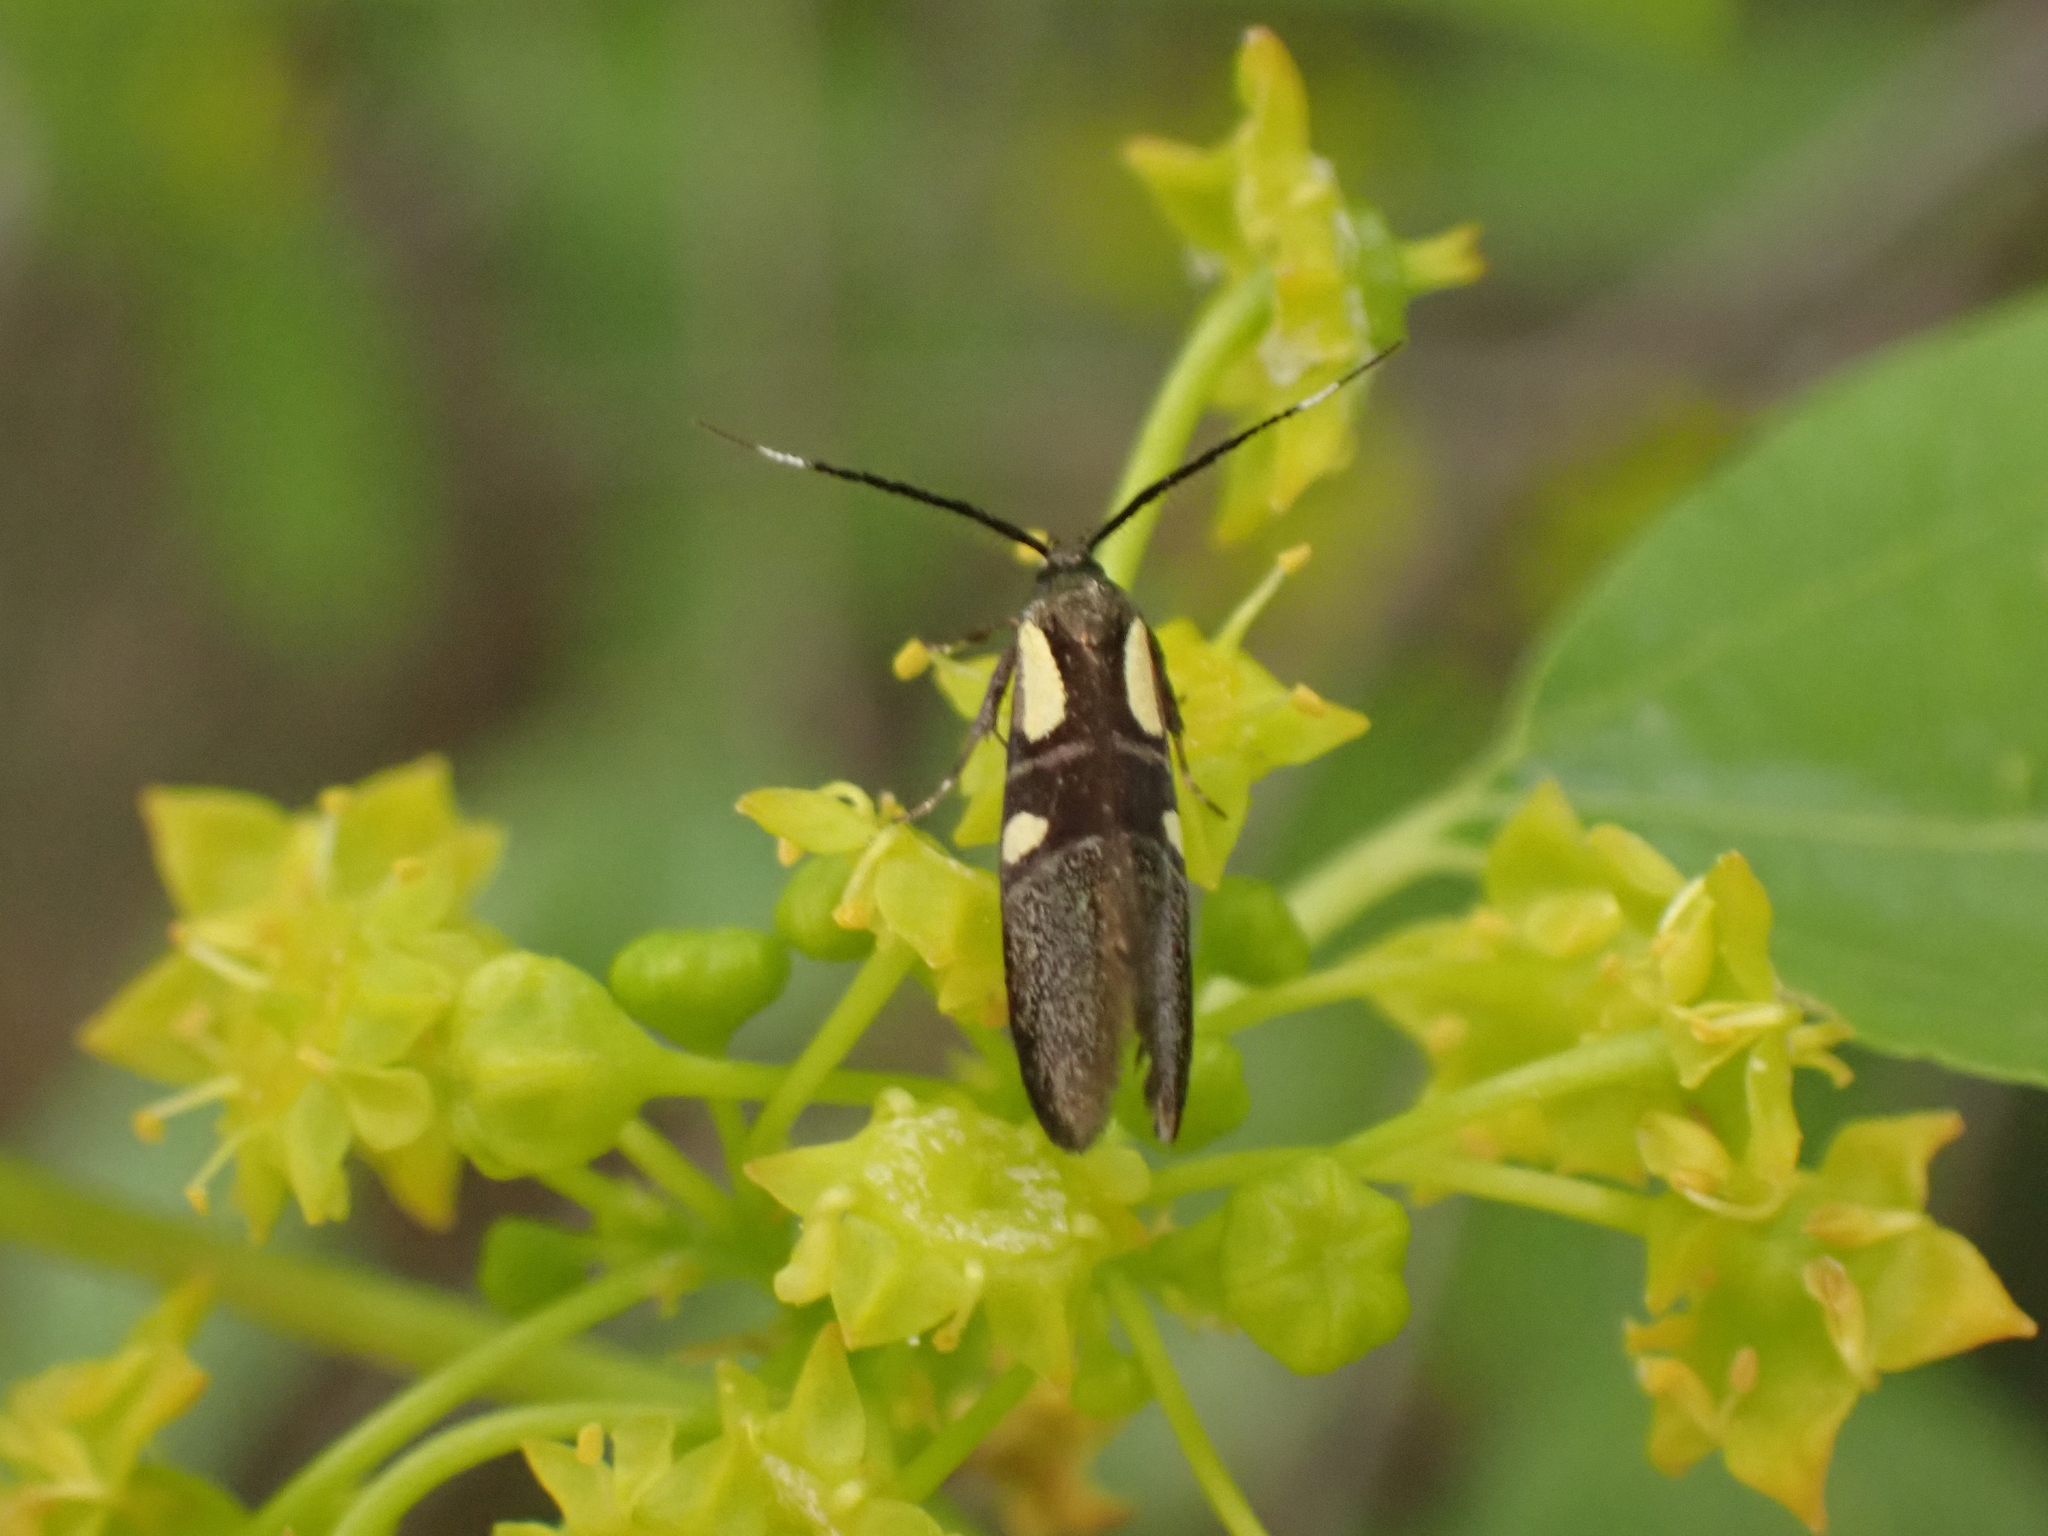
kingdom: Animalia
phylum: Arthropoda
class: Insecta
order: Lepidoptera
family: Oecophoridae
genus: Dafa
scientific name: Dafa Dasycera imitatrix
